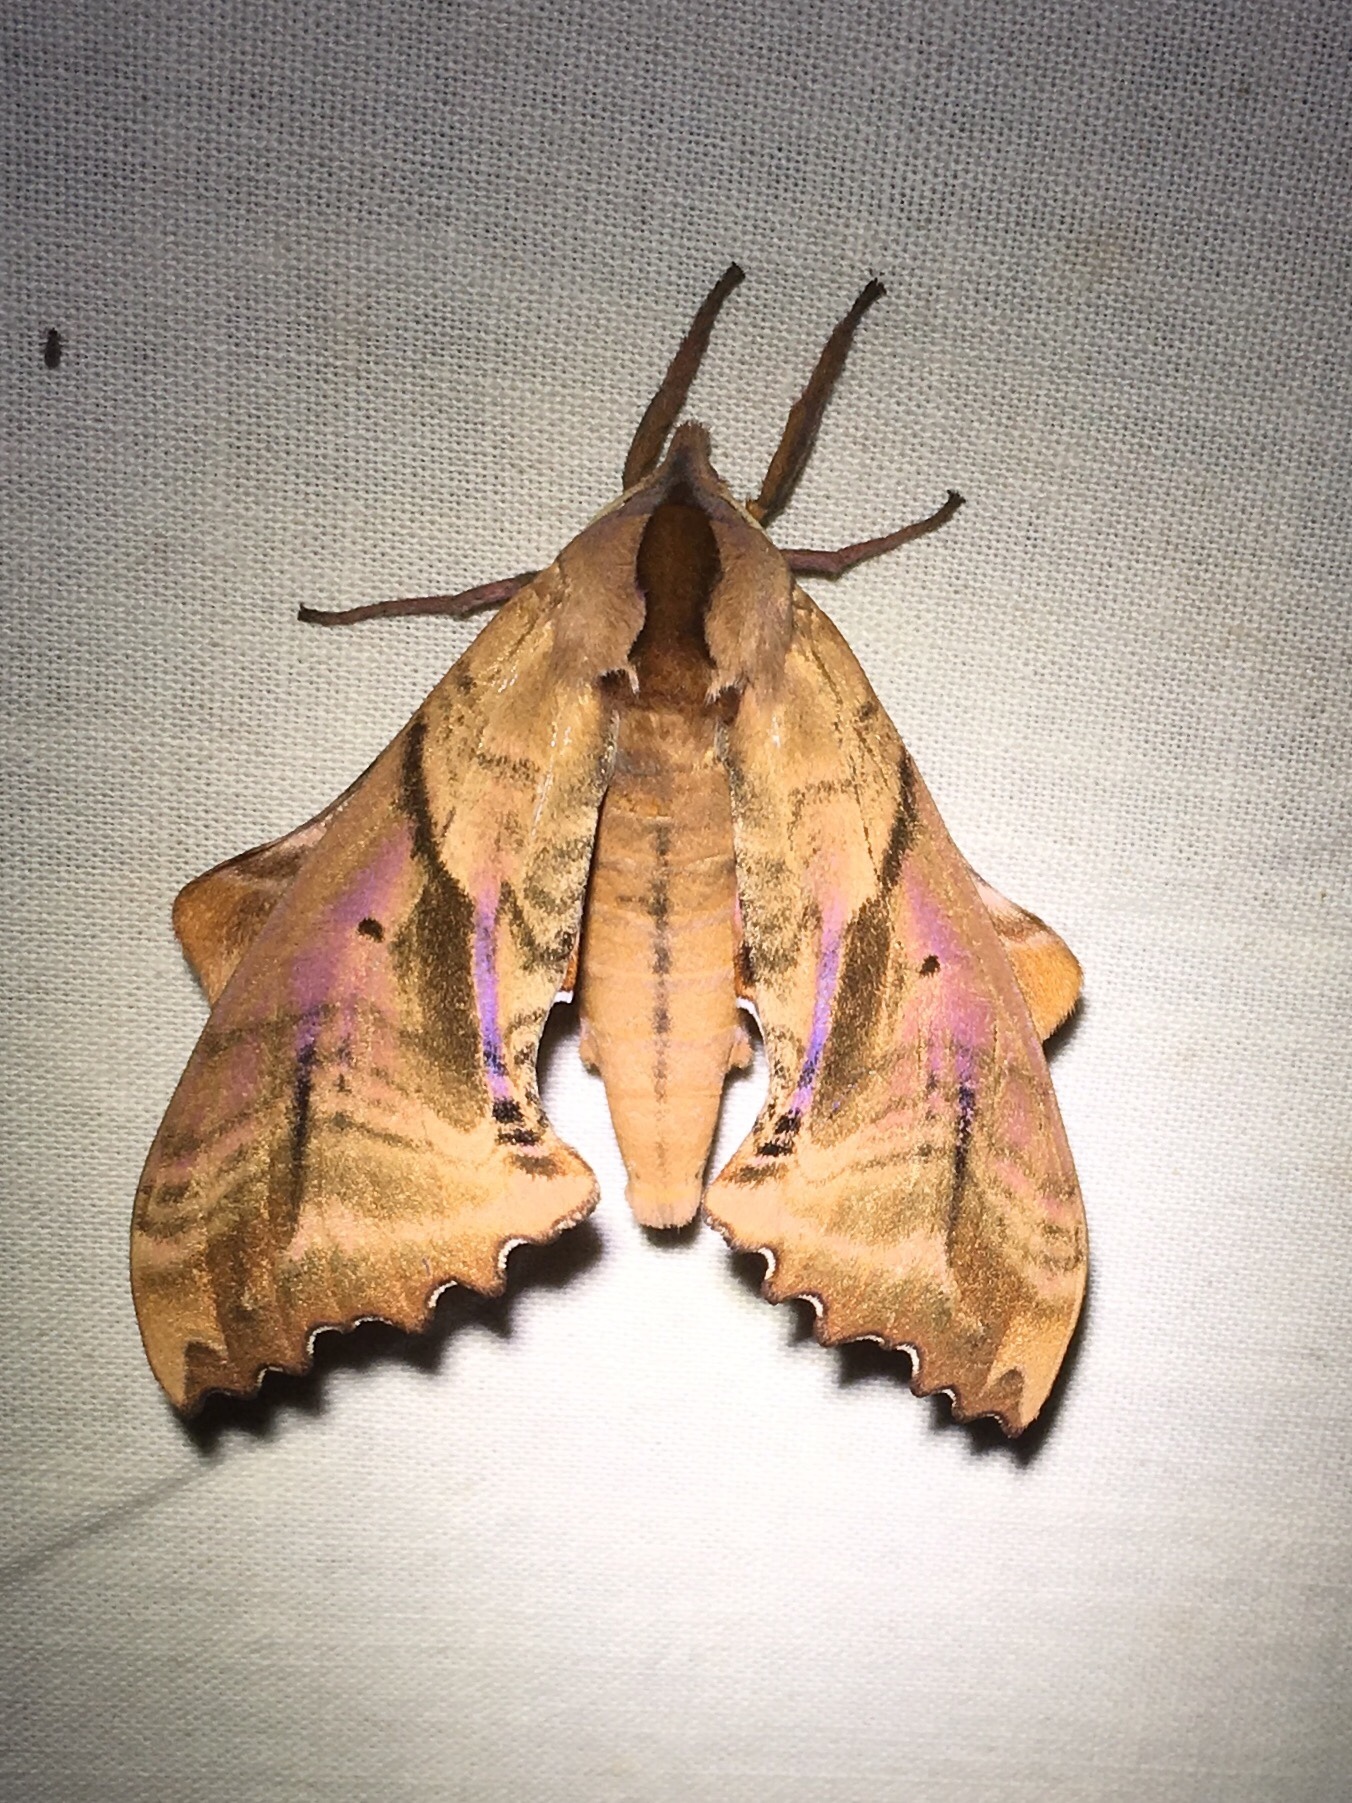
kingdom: Animalia
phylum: Arthropoda
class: Insecta
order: Lepidoptera
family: Sphingidae
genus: Paonias
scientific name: Paonias excaecata
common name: Blind-eyed sphinx
